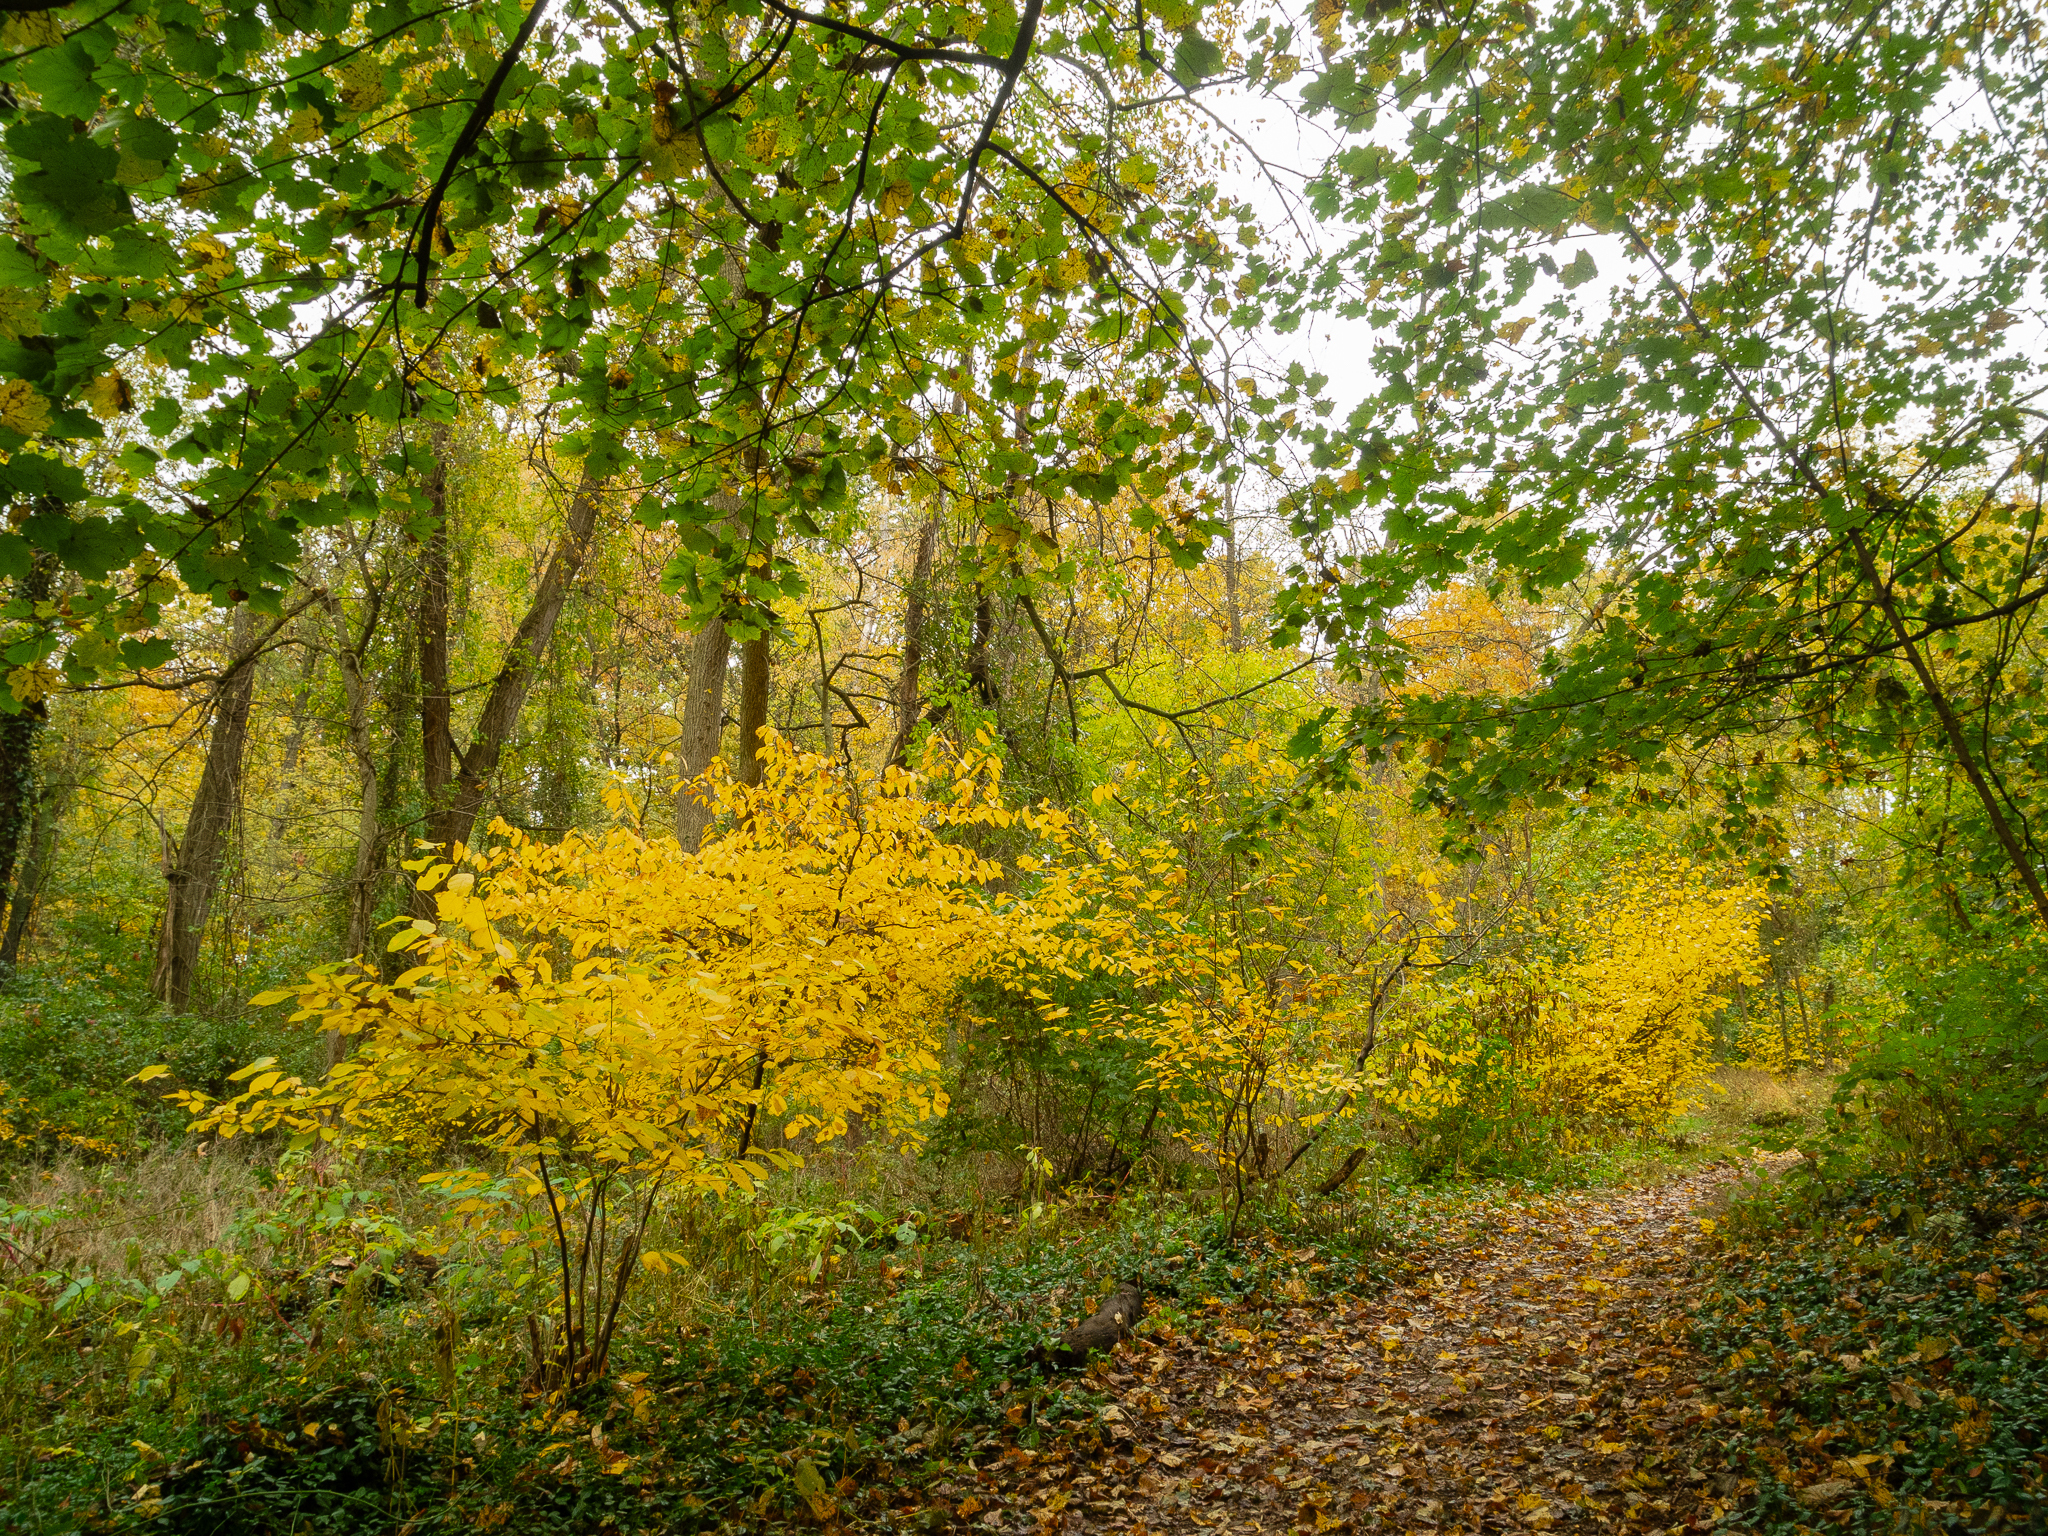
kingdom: Plantae
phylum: Tracheophyta
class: Magnoliopsida
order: Laurales
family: Lauraceae
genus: Lindera
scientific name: Lindera benzoin
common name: Spicebush
